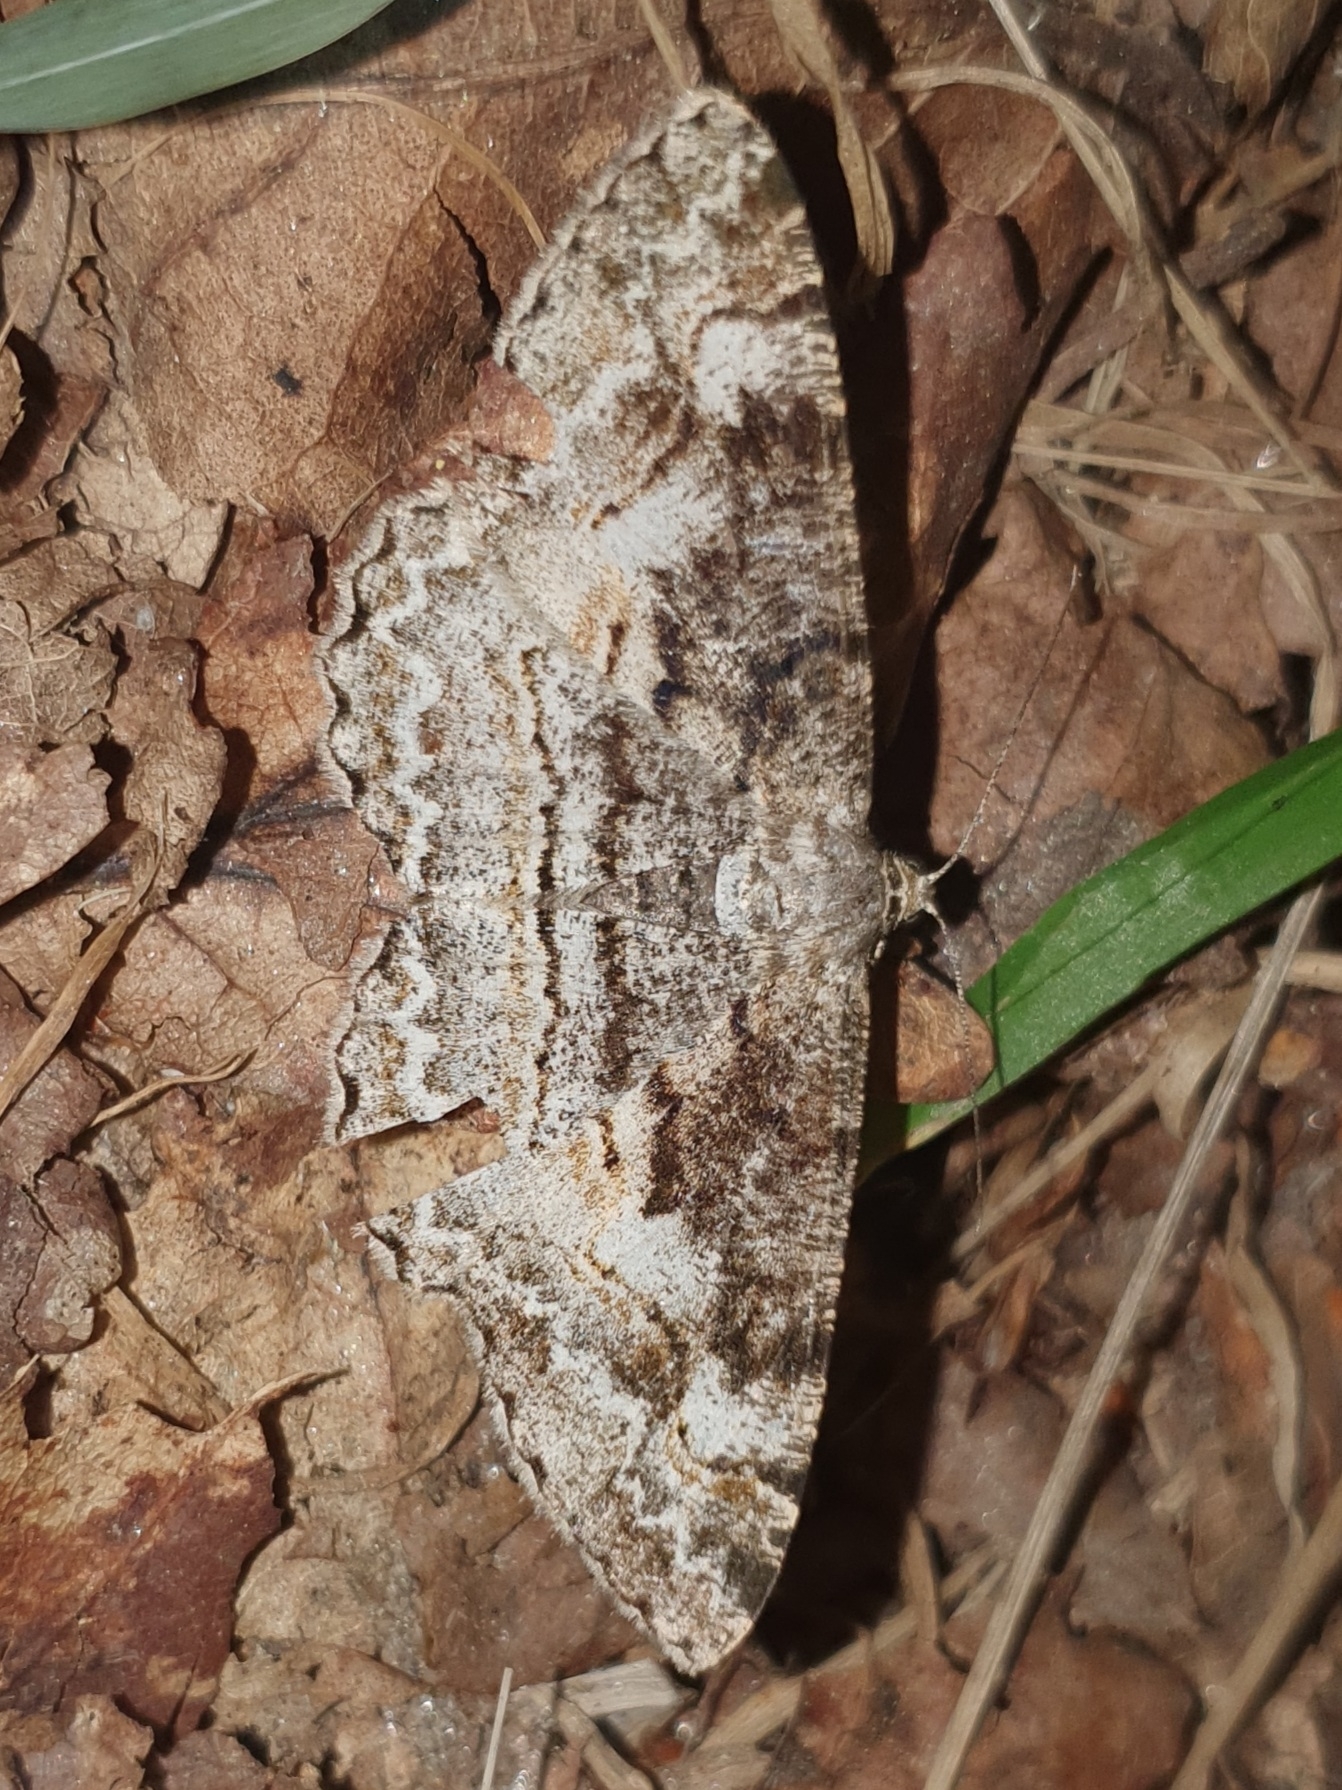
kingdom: Animalia
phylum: Arthropoda
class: Insecta
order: Lepidoptera
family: Geometridae
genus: Alcis
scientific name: Alcis repandata
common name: Mottled beauty
